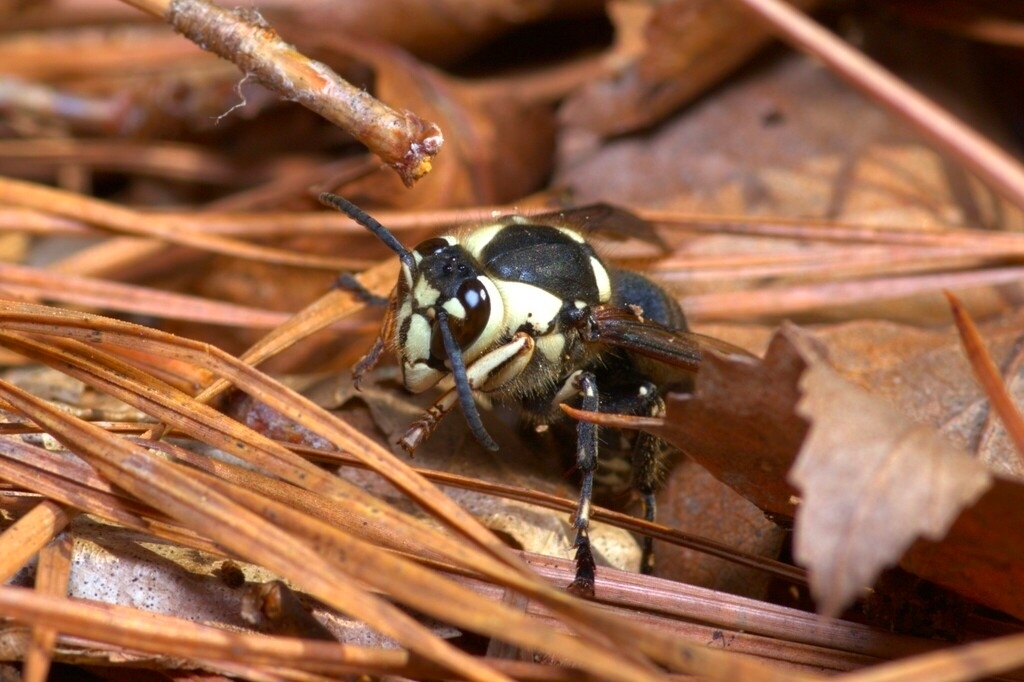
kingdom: Animalia
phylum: Arthropoda
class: Insecta
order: Hymenoptera
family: Vespidae
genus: Dolichovespula
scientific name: Dolichovespula maculata
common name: Bald-faced hornet
